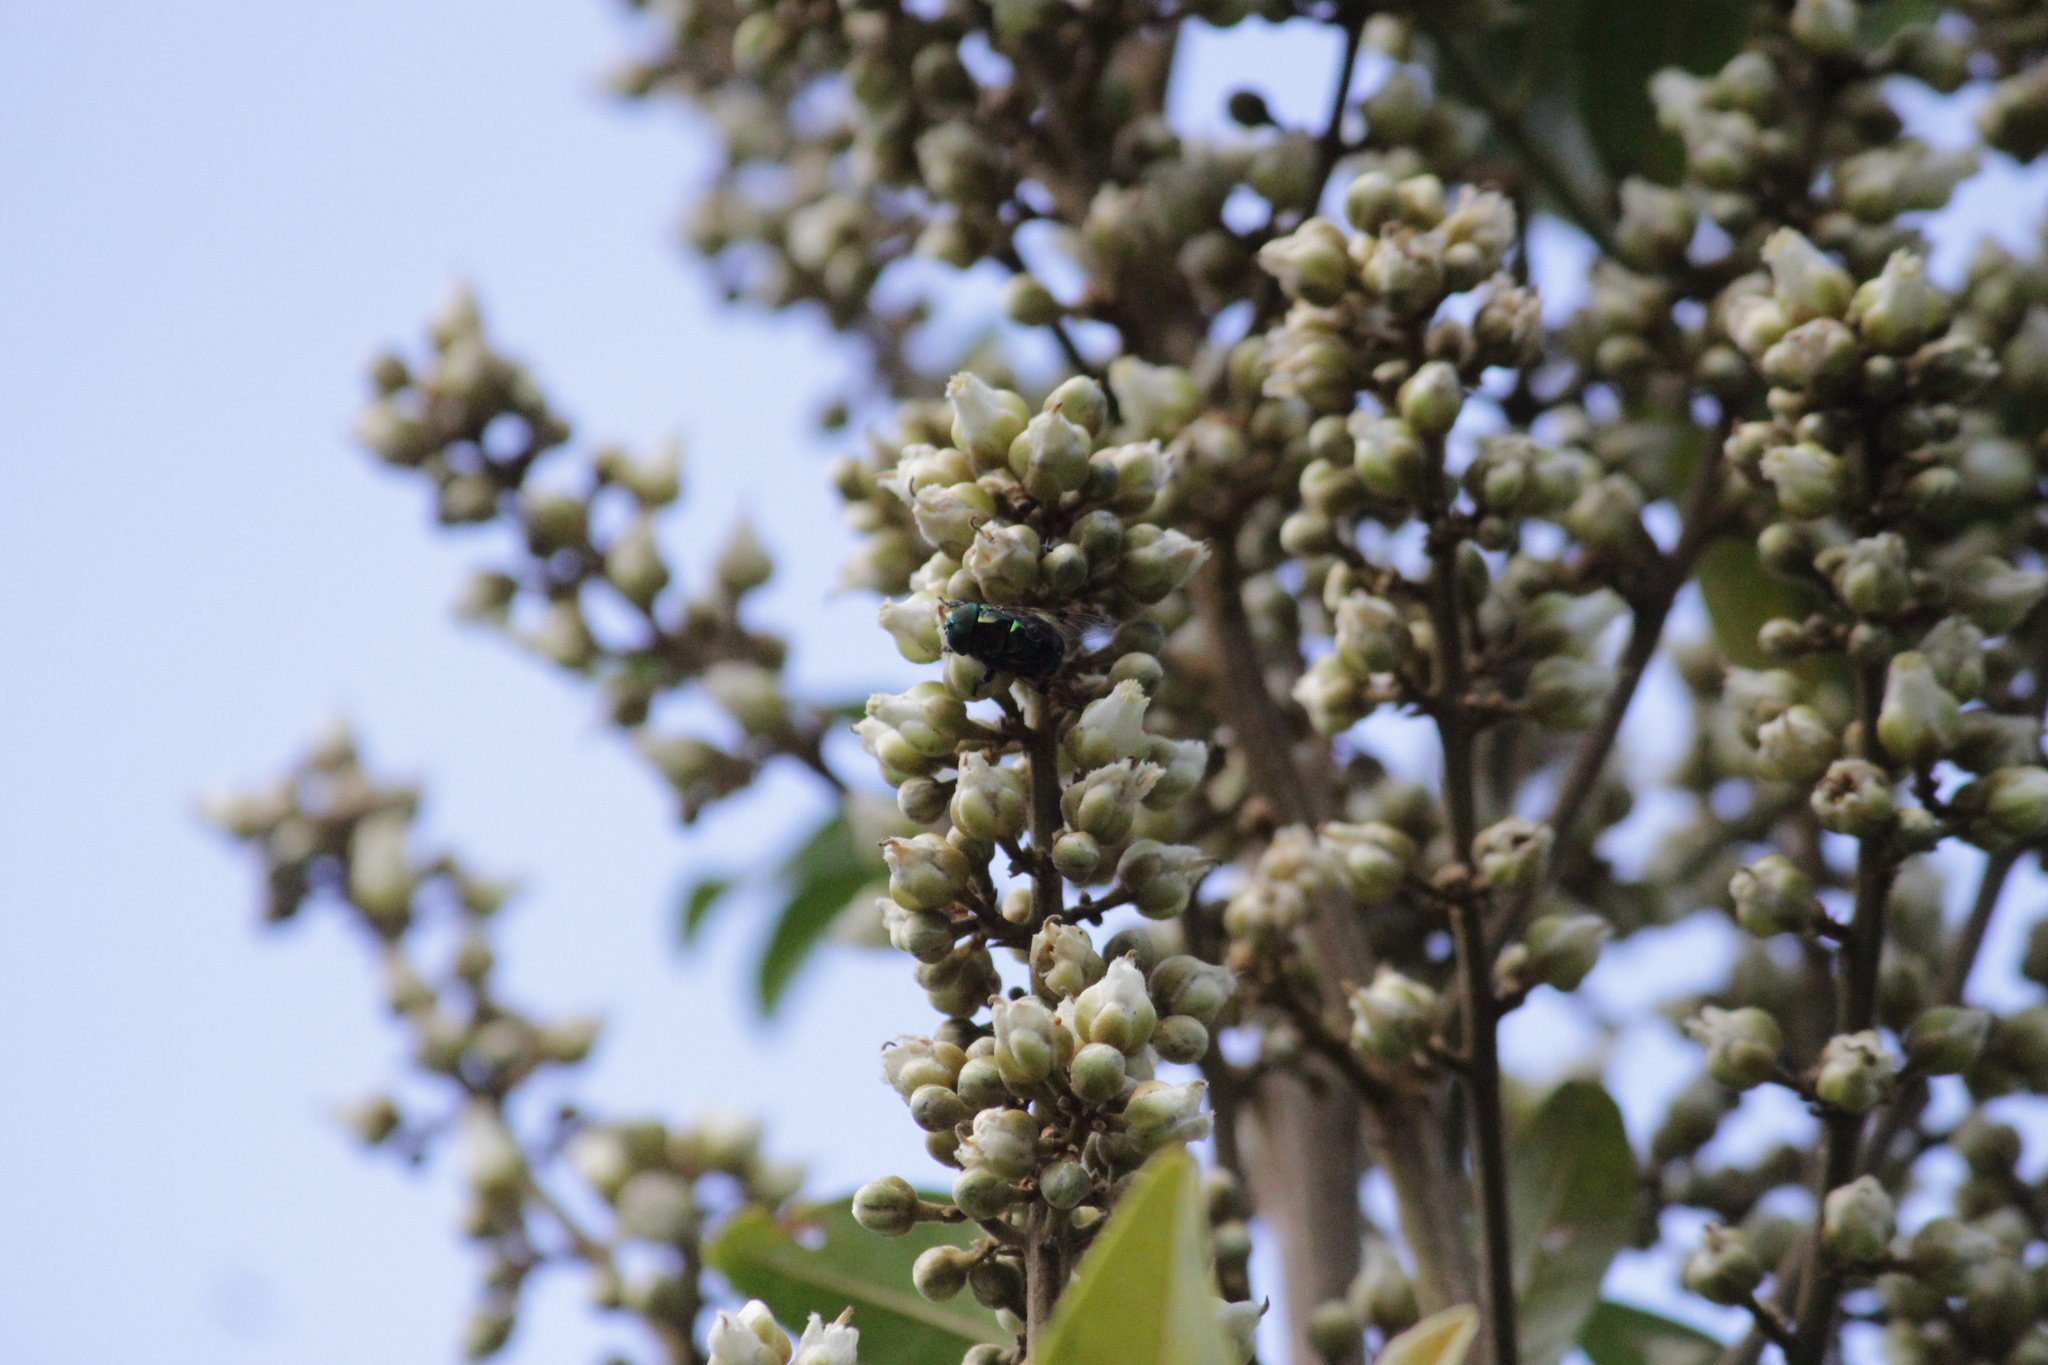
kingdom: Animalia
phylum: Arthropoda
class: Insecta
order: Diptera
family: Syrphidae
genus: Ornidia
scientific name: Ornidia obesa
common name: Syrphid fly
